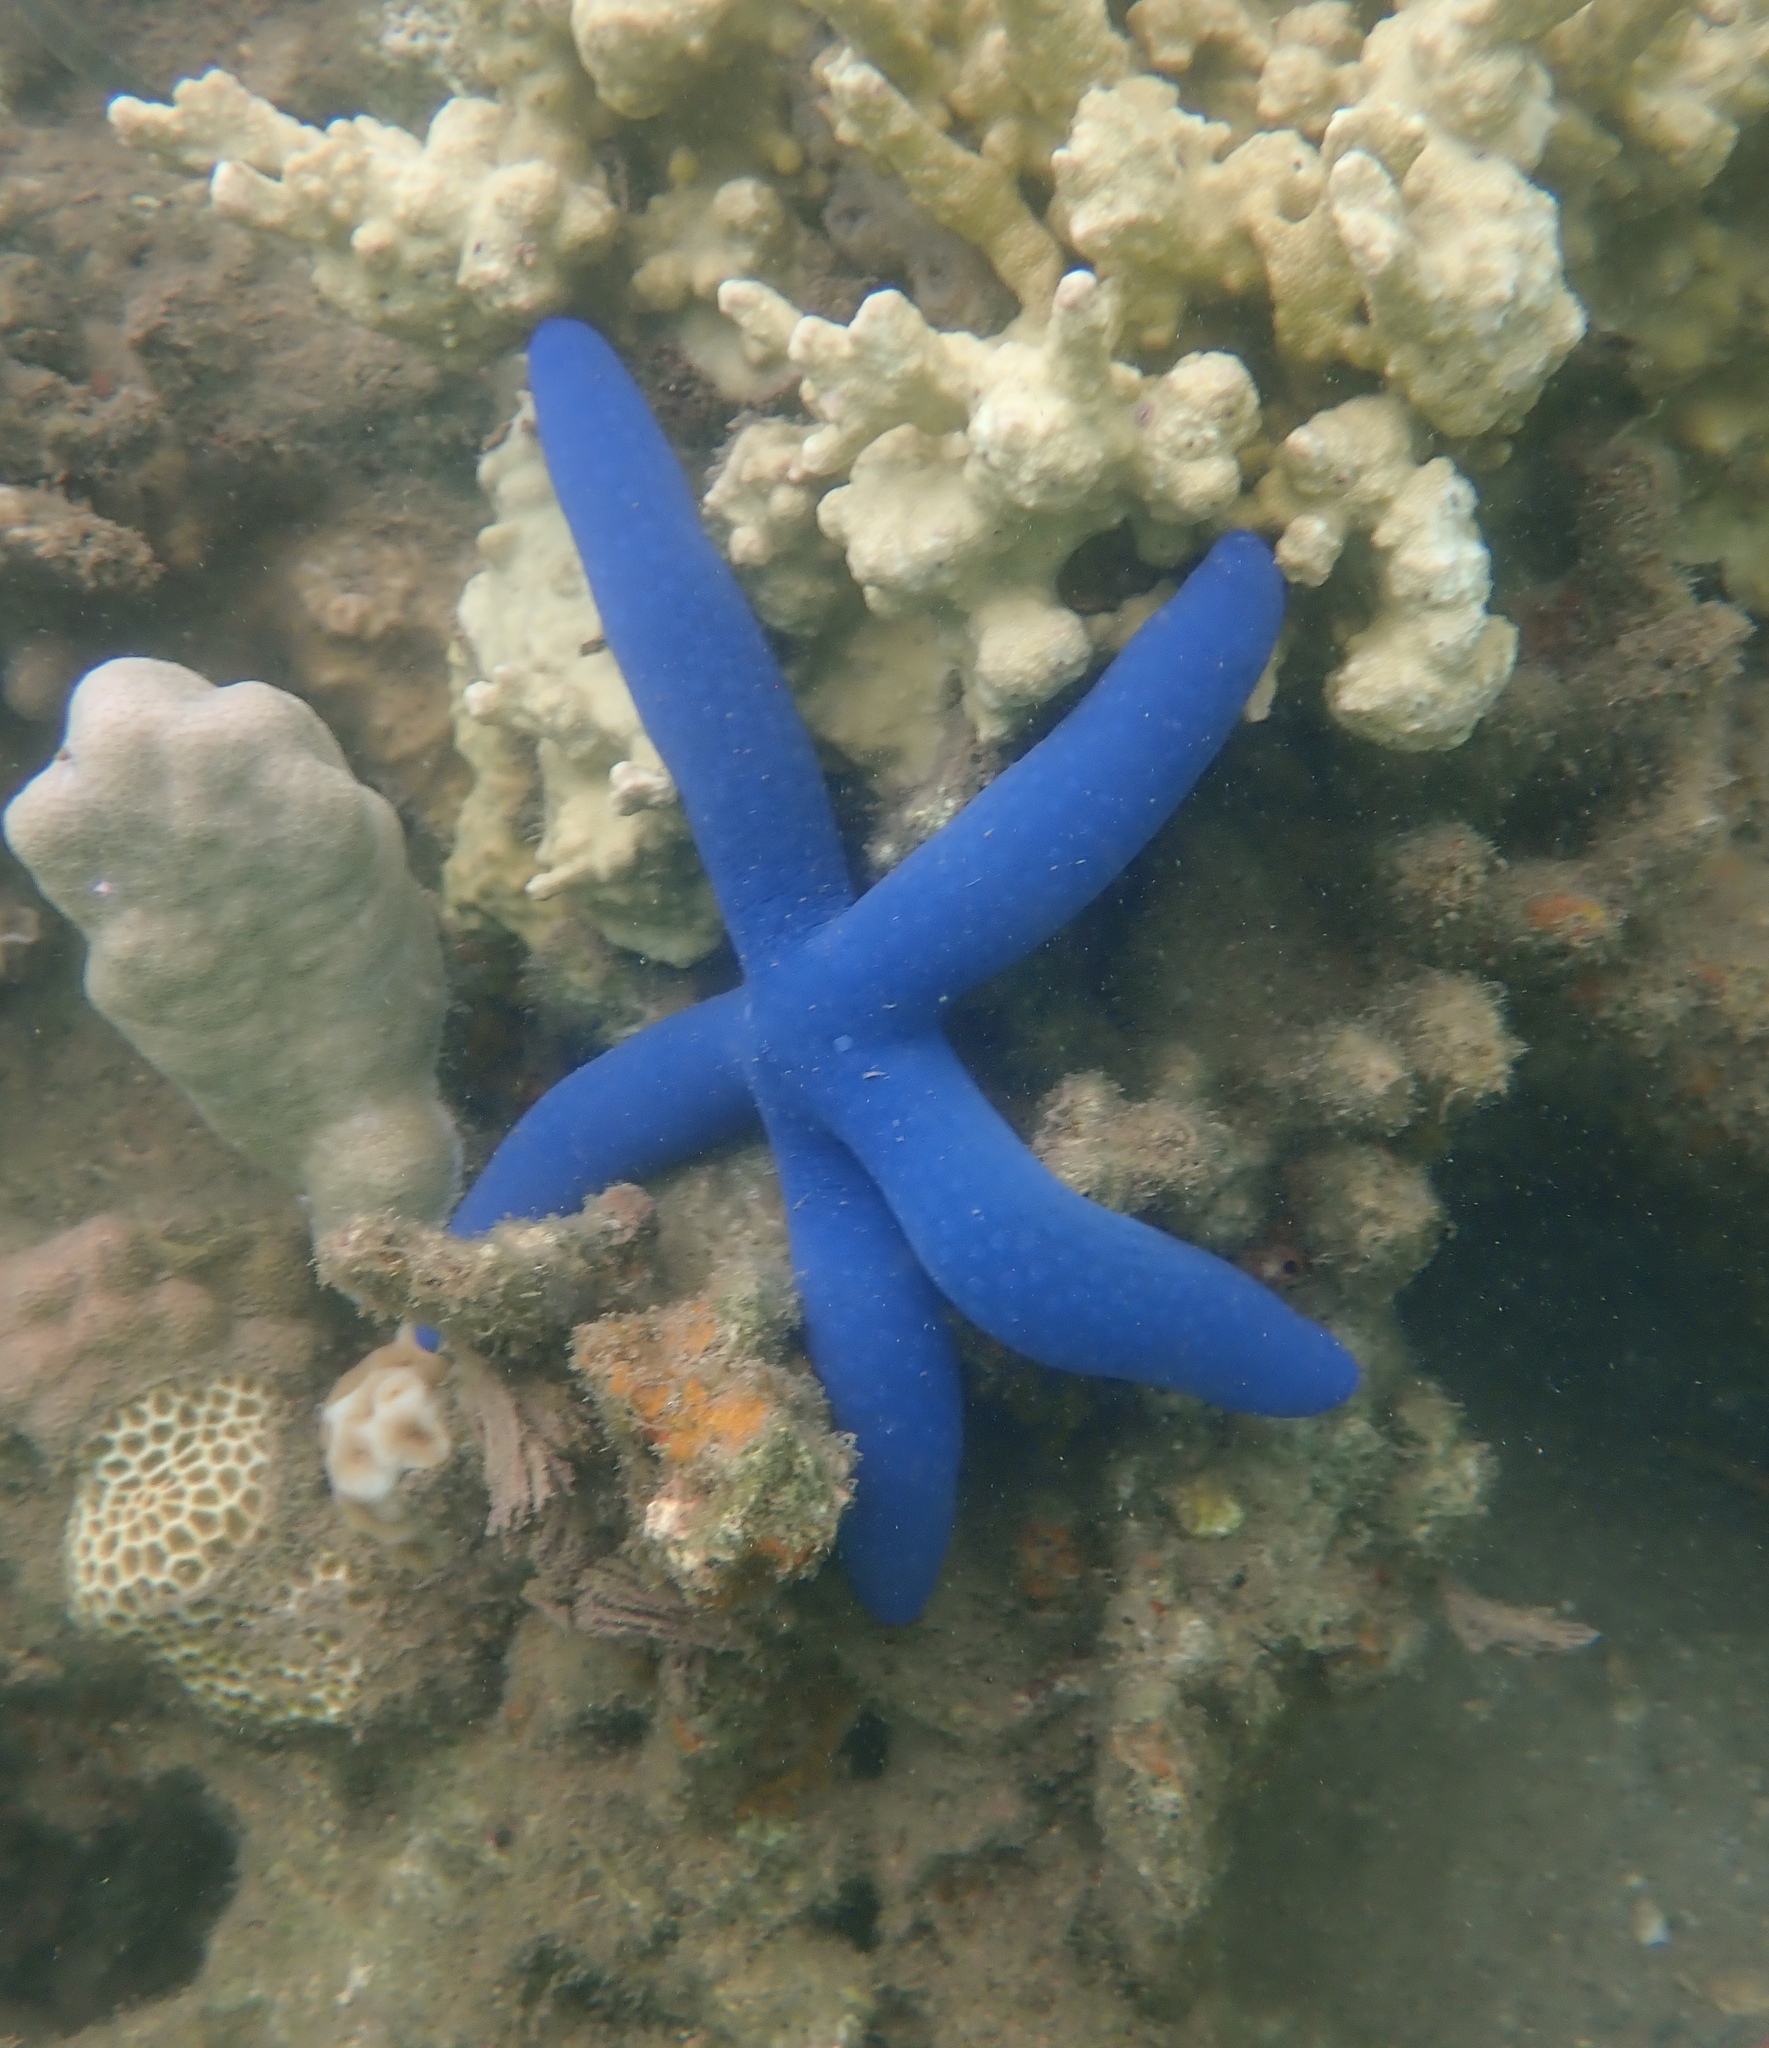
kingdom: Animalia
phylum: Echinodermata
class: Asteroidea
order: Valvatida
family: Ophidiasteridae
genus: Linckia
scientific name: Linckia laevigata
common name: Azure sea star
